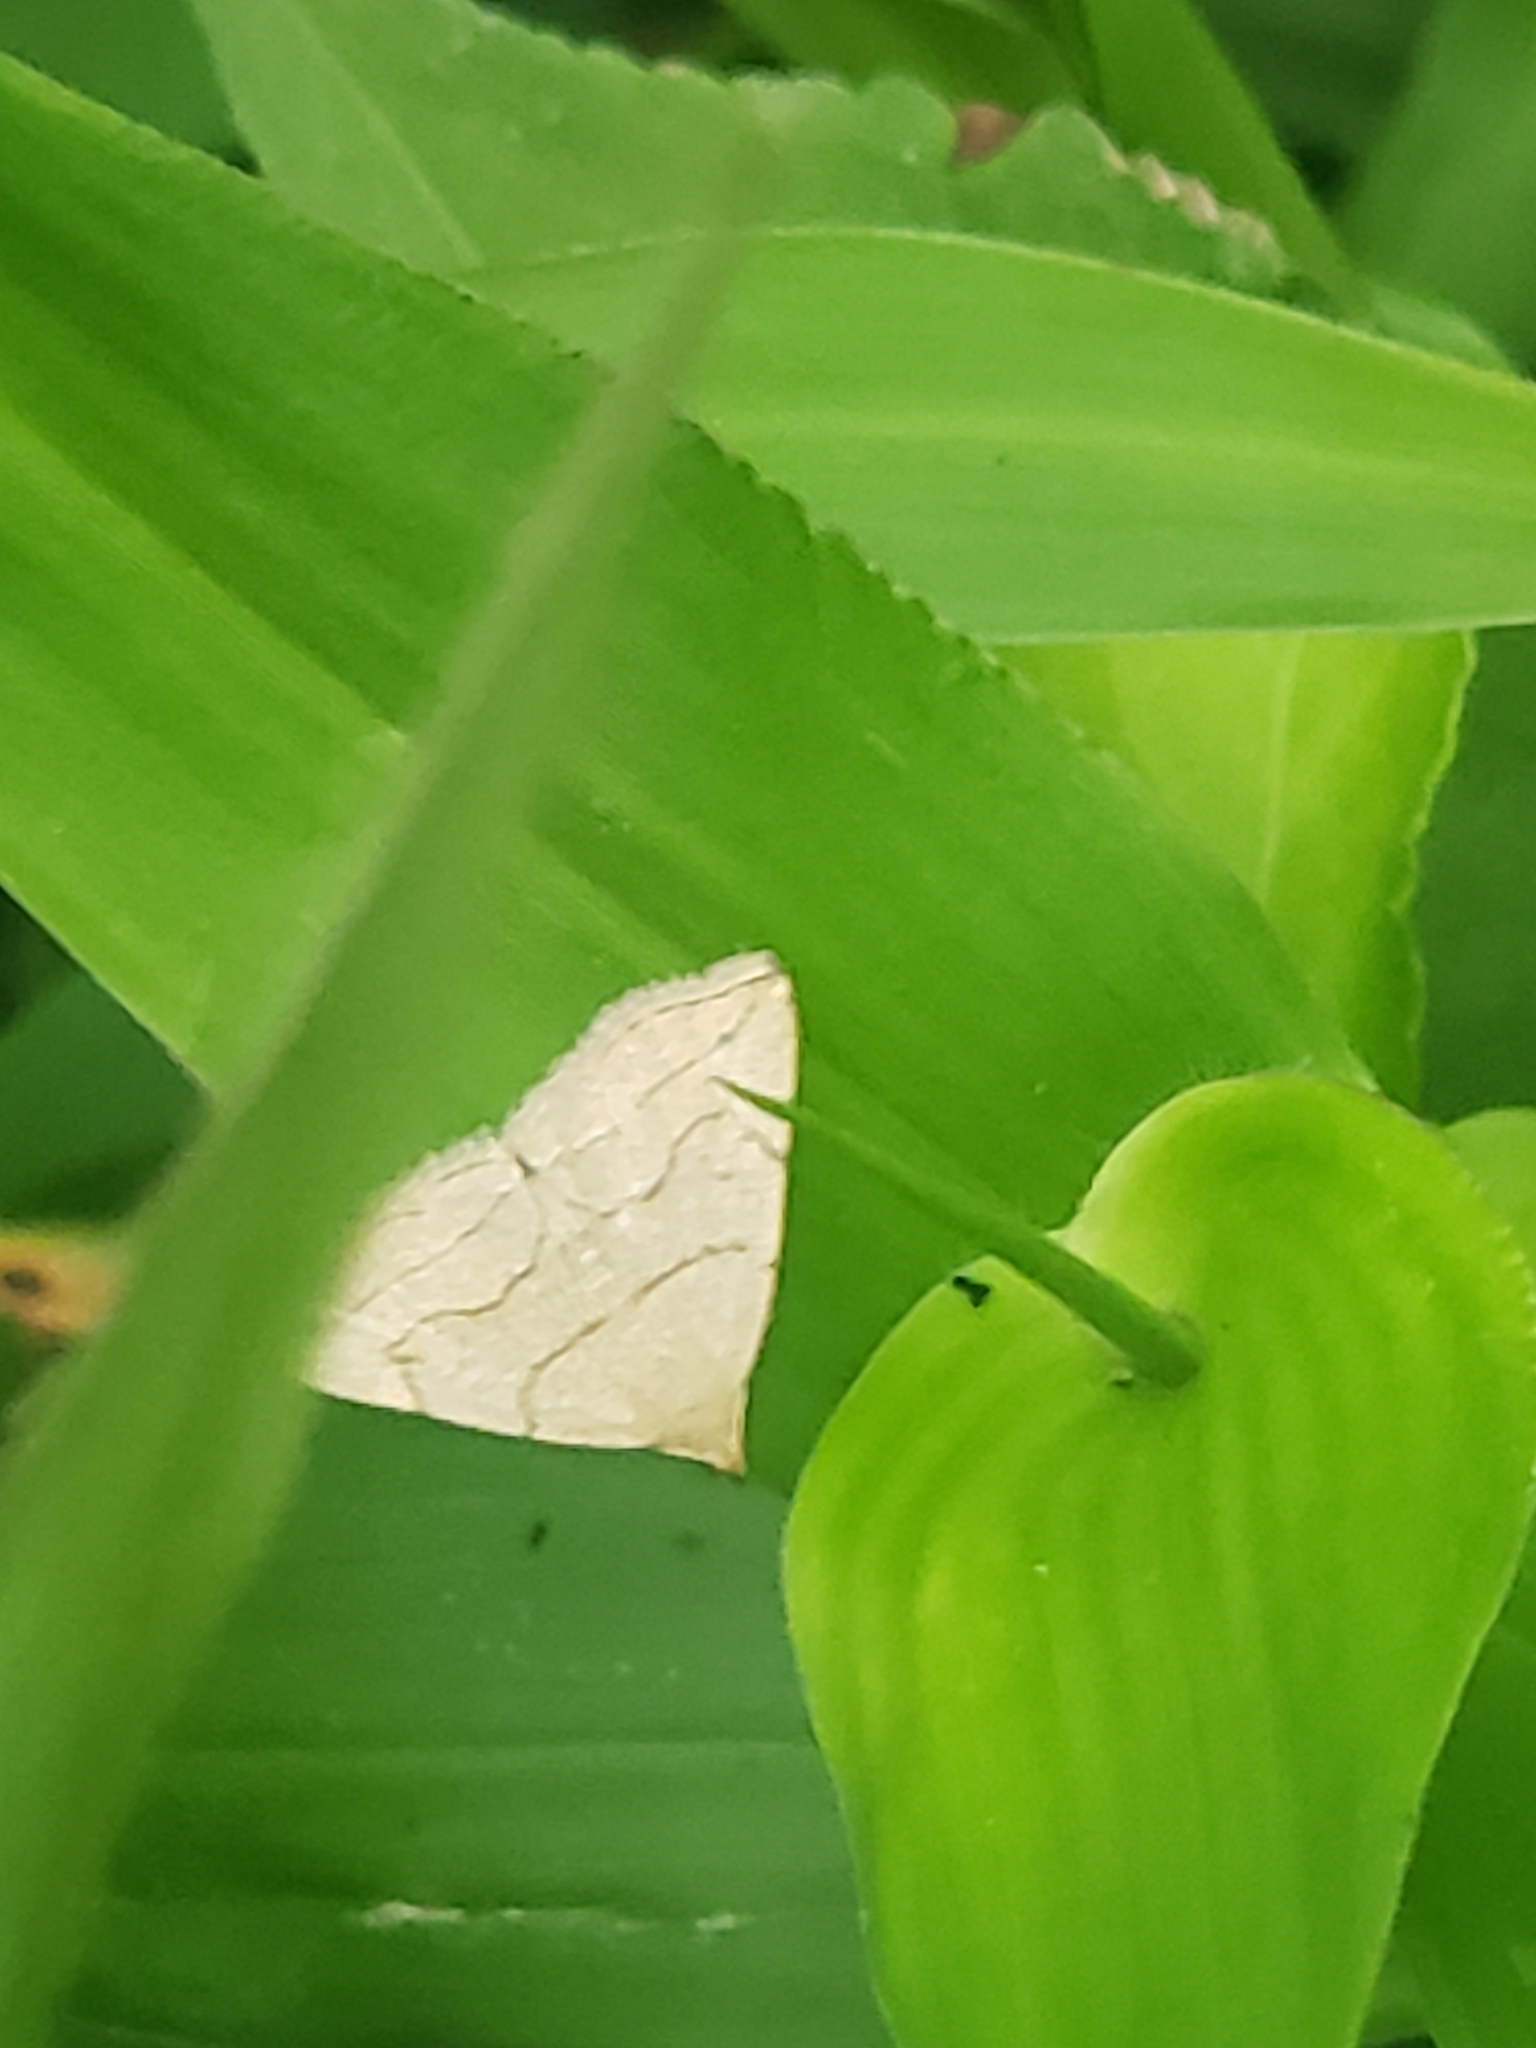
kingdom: Animalia
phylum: Arthropoda
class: Insecta
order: Lepidoptera
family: Erebidae
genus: Zanclognatha
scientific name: Zanclognatha pedipilalis
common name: Grayish fan-foot
